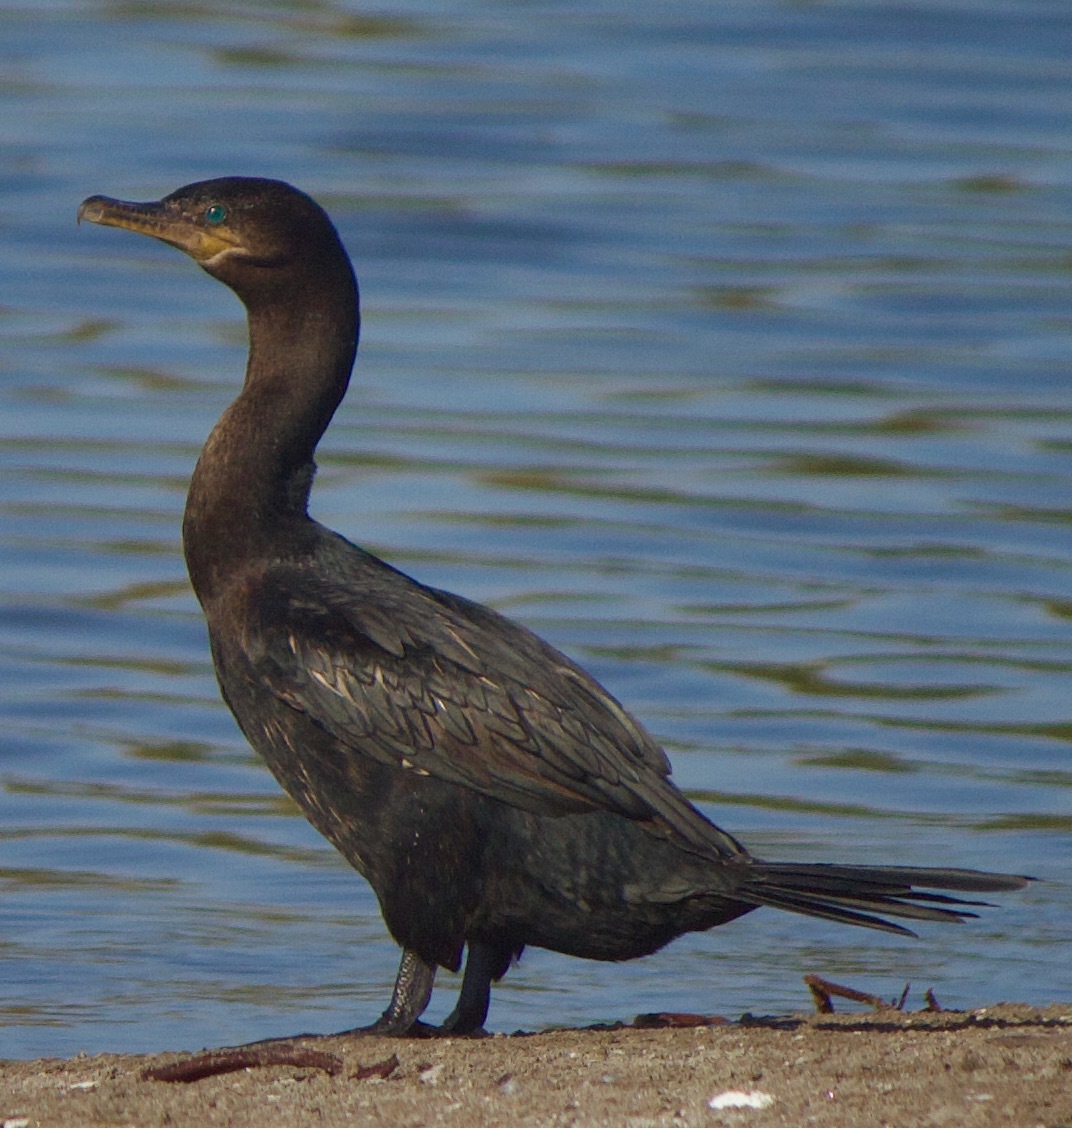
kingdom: Animalia
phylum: Chordata
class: Aves
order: Suliformes
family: Phalacrocoracidae
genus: Phalacrocorax
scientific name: Phalacrocorax brasilianus
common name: Neotropic cormorant
